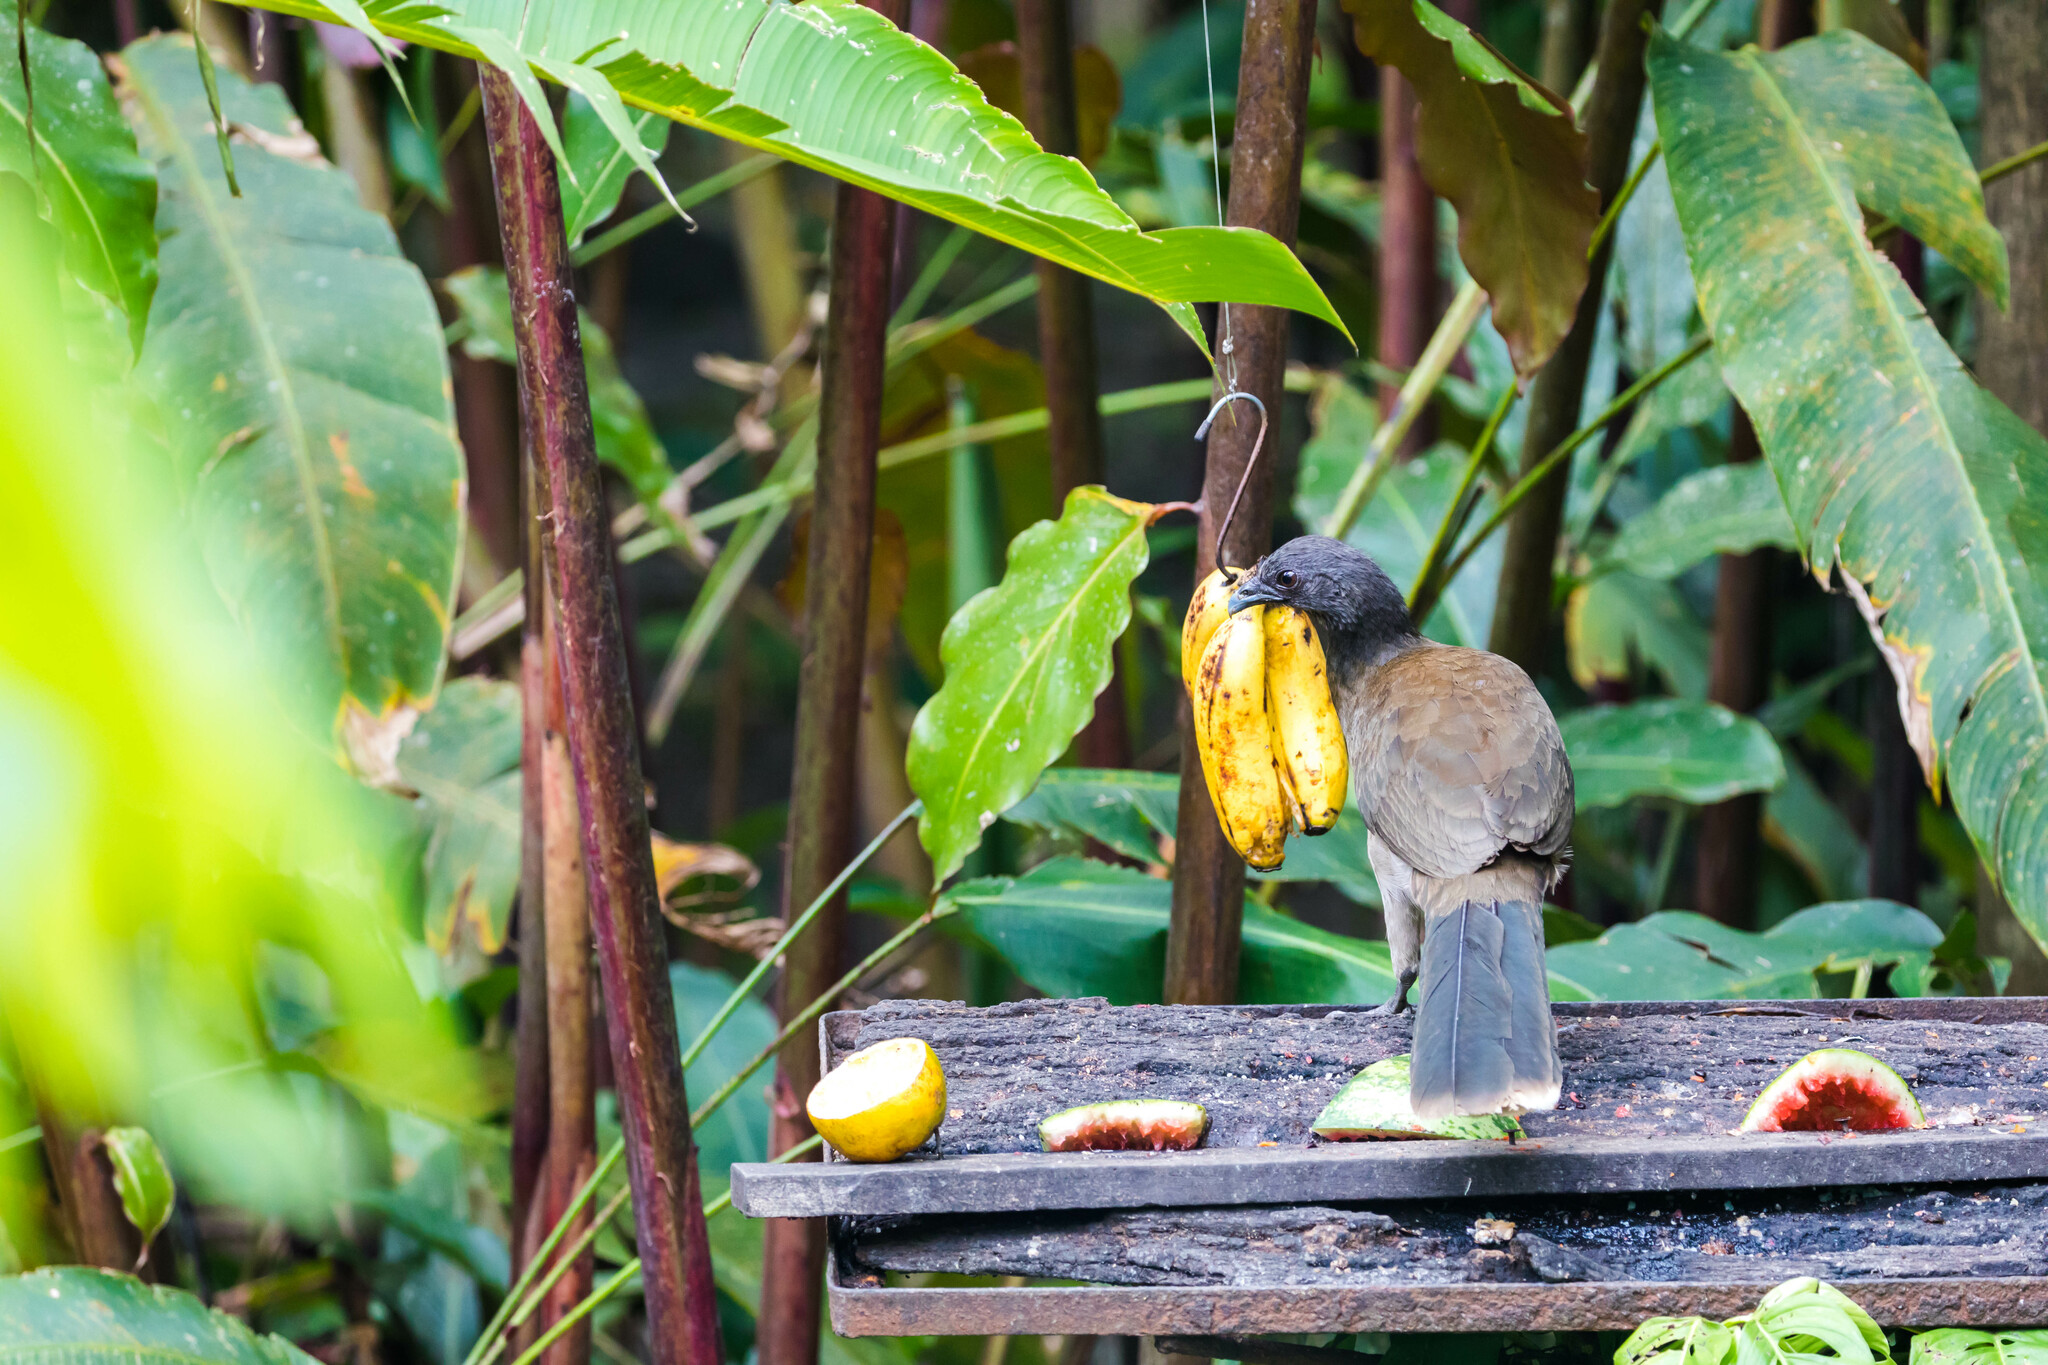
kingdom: Animalia
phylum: Chordata
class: Aves
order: Galliformes
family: Cracidae
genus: Ortalis
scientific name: Ortalis cinereiceps
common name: Grey-headed chachalaca
